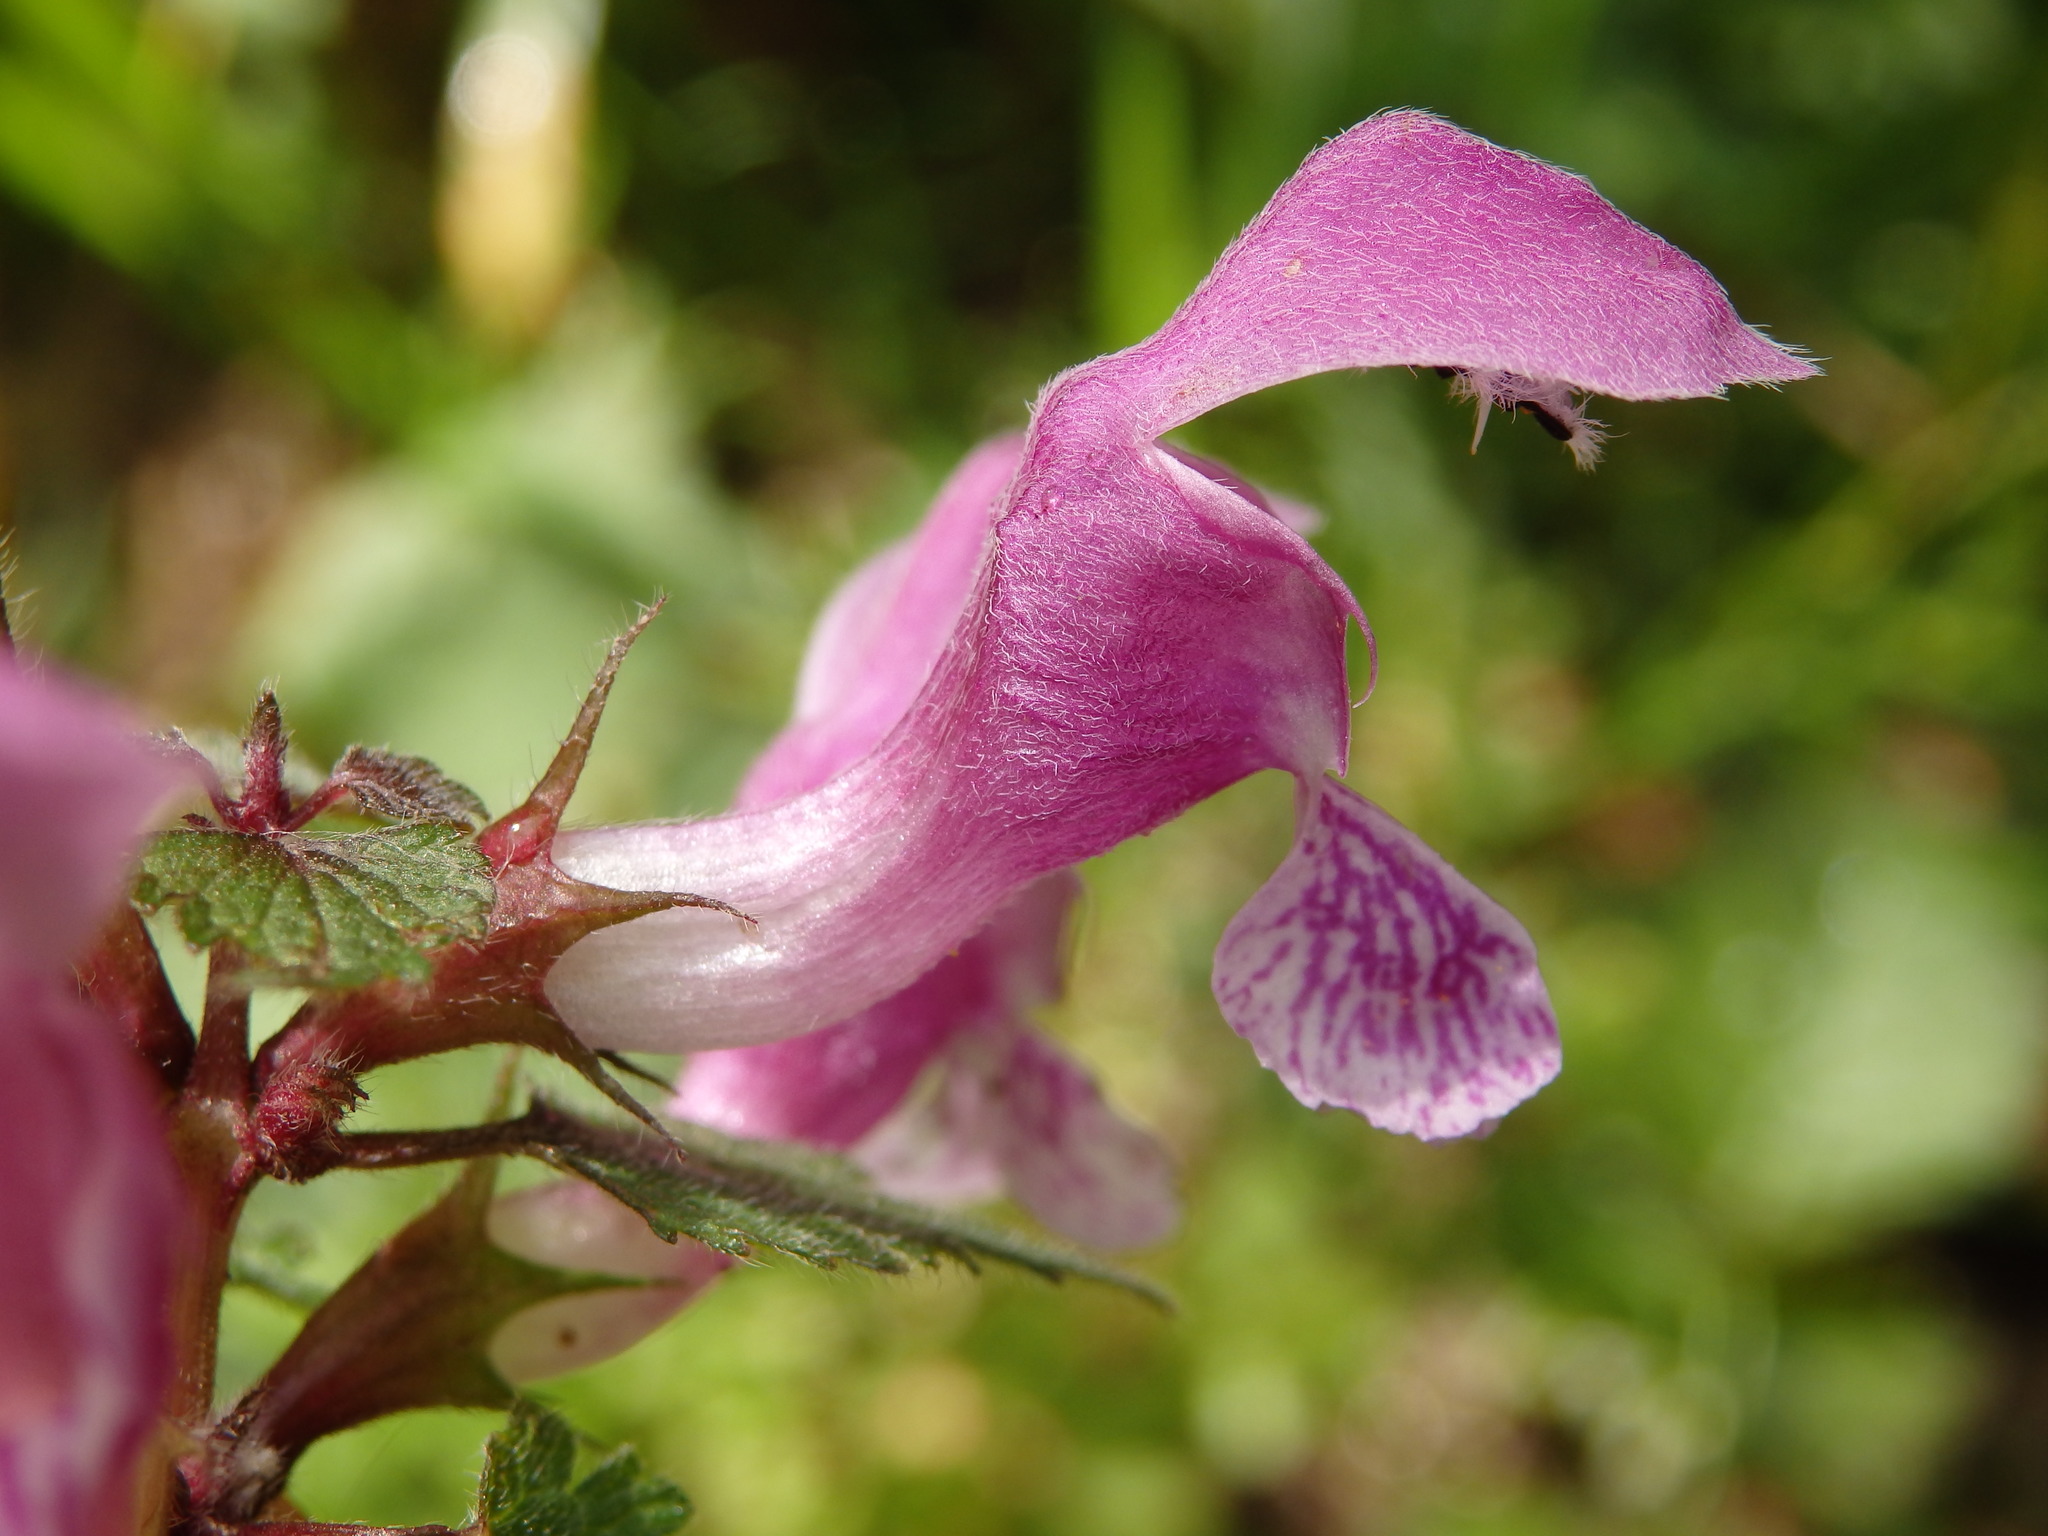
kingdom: Plantae
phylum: Tracheophyta
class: Magnoliopsida
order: Lamiales
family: Lamiaceae
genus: Lamium
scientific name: Lamium maculatum
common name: Spotted dead-nettle
